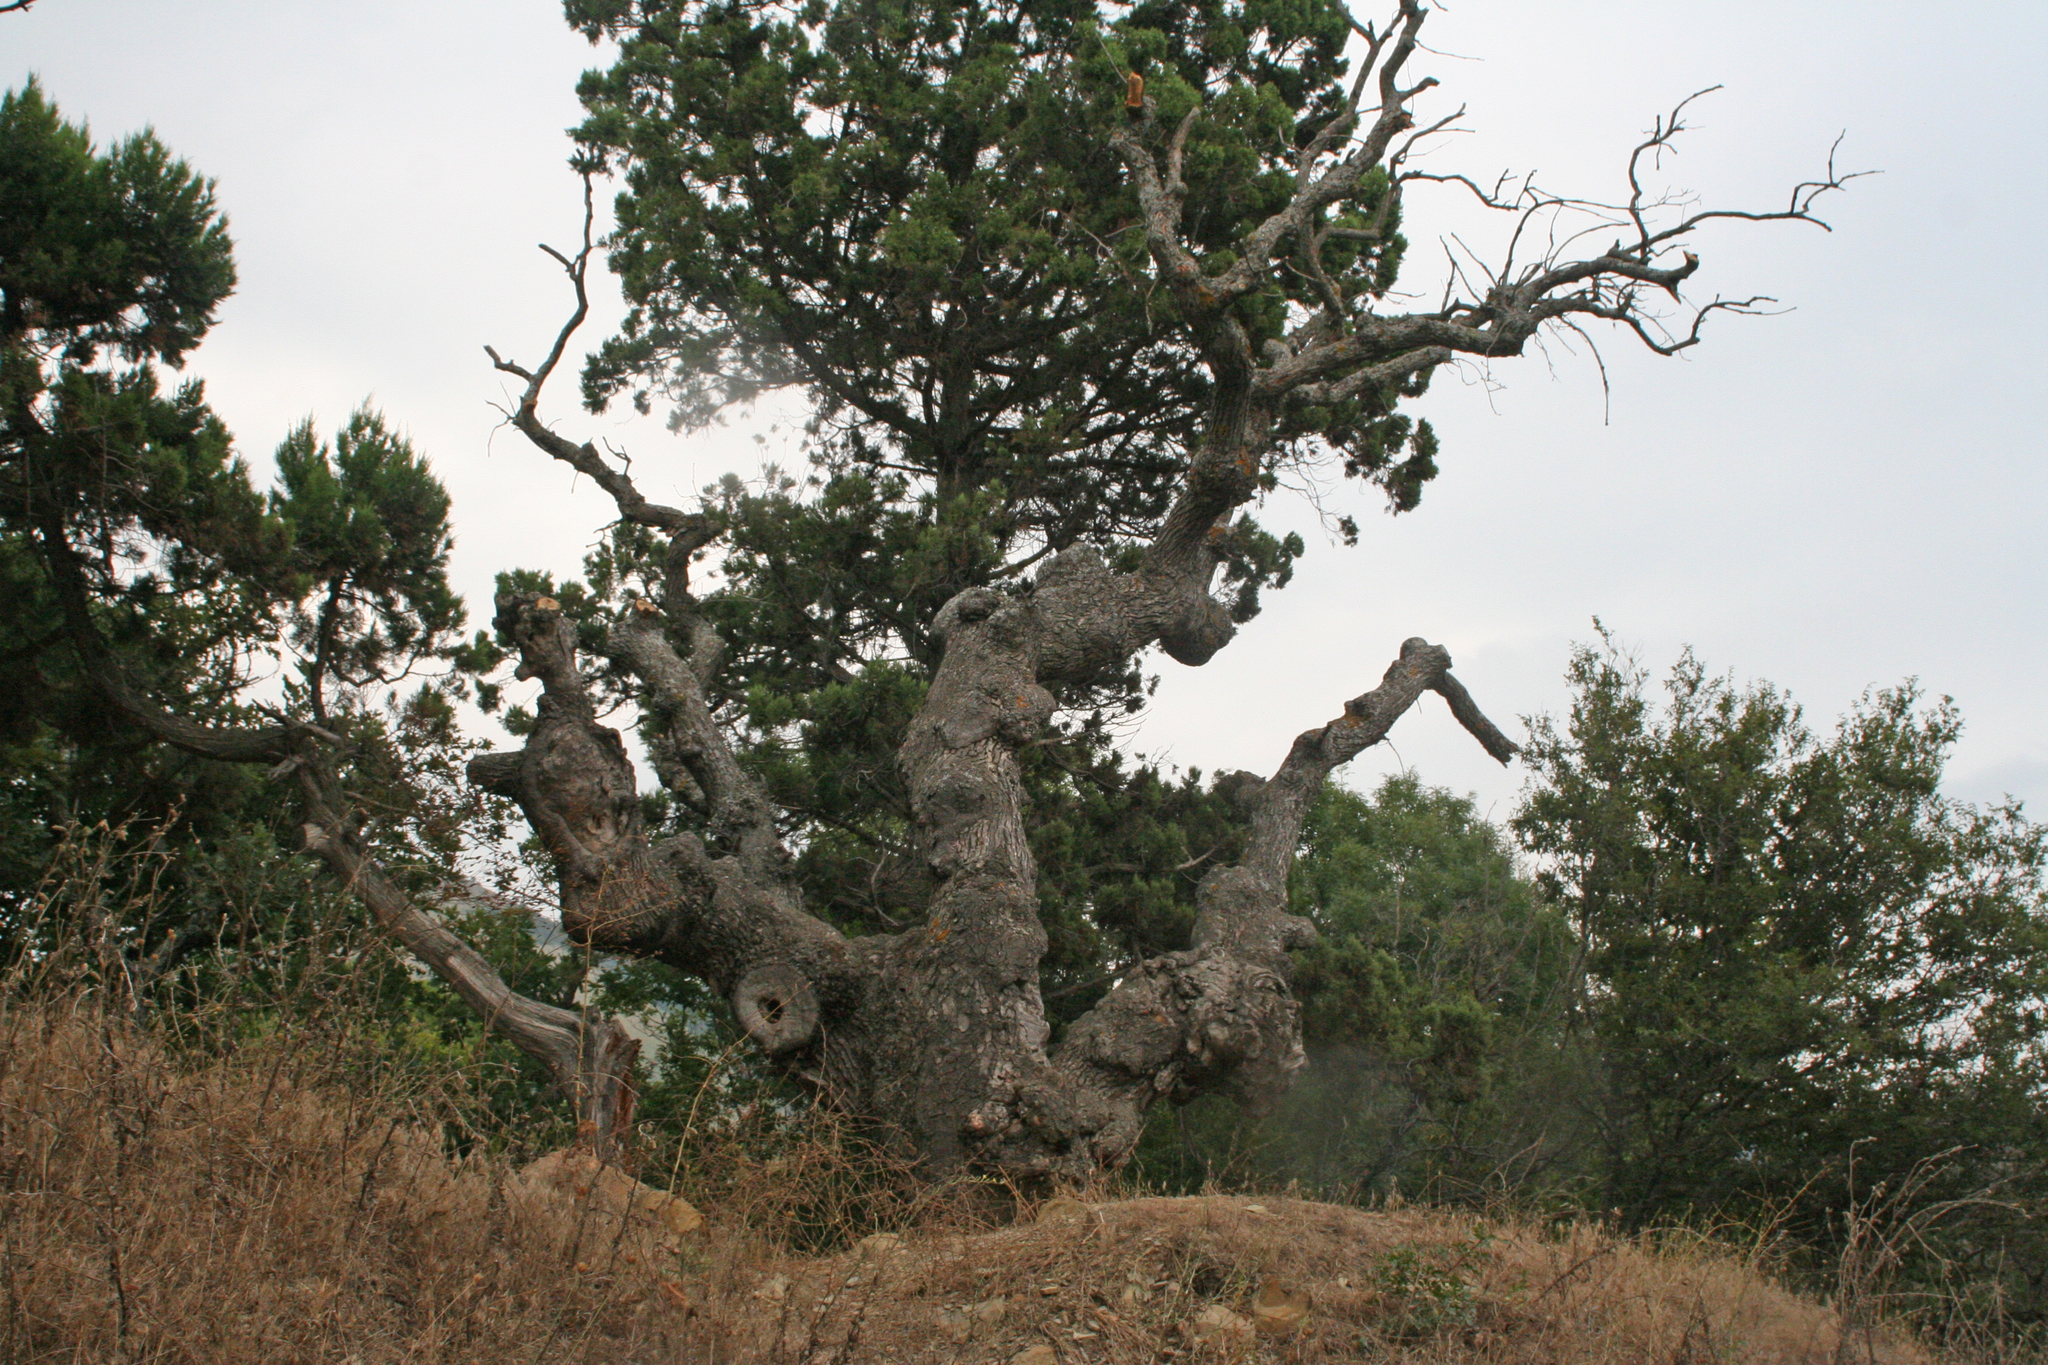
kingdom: Plantae
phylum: Tracheophyta
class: Magnoliopsida
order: Fagales
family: Fagaceae
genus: Quercus
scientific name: Quercus pubescens
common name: Downy oak
